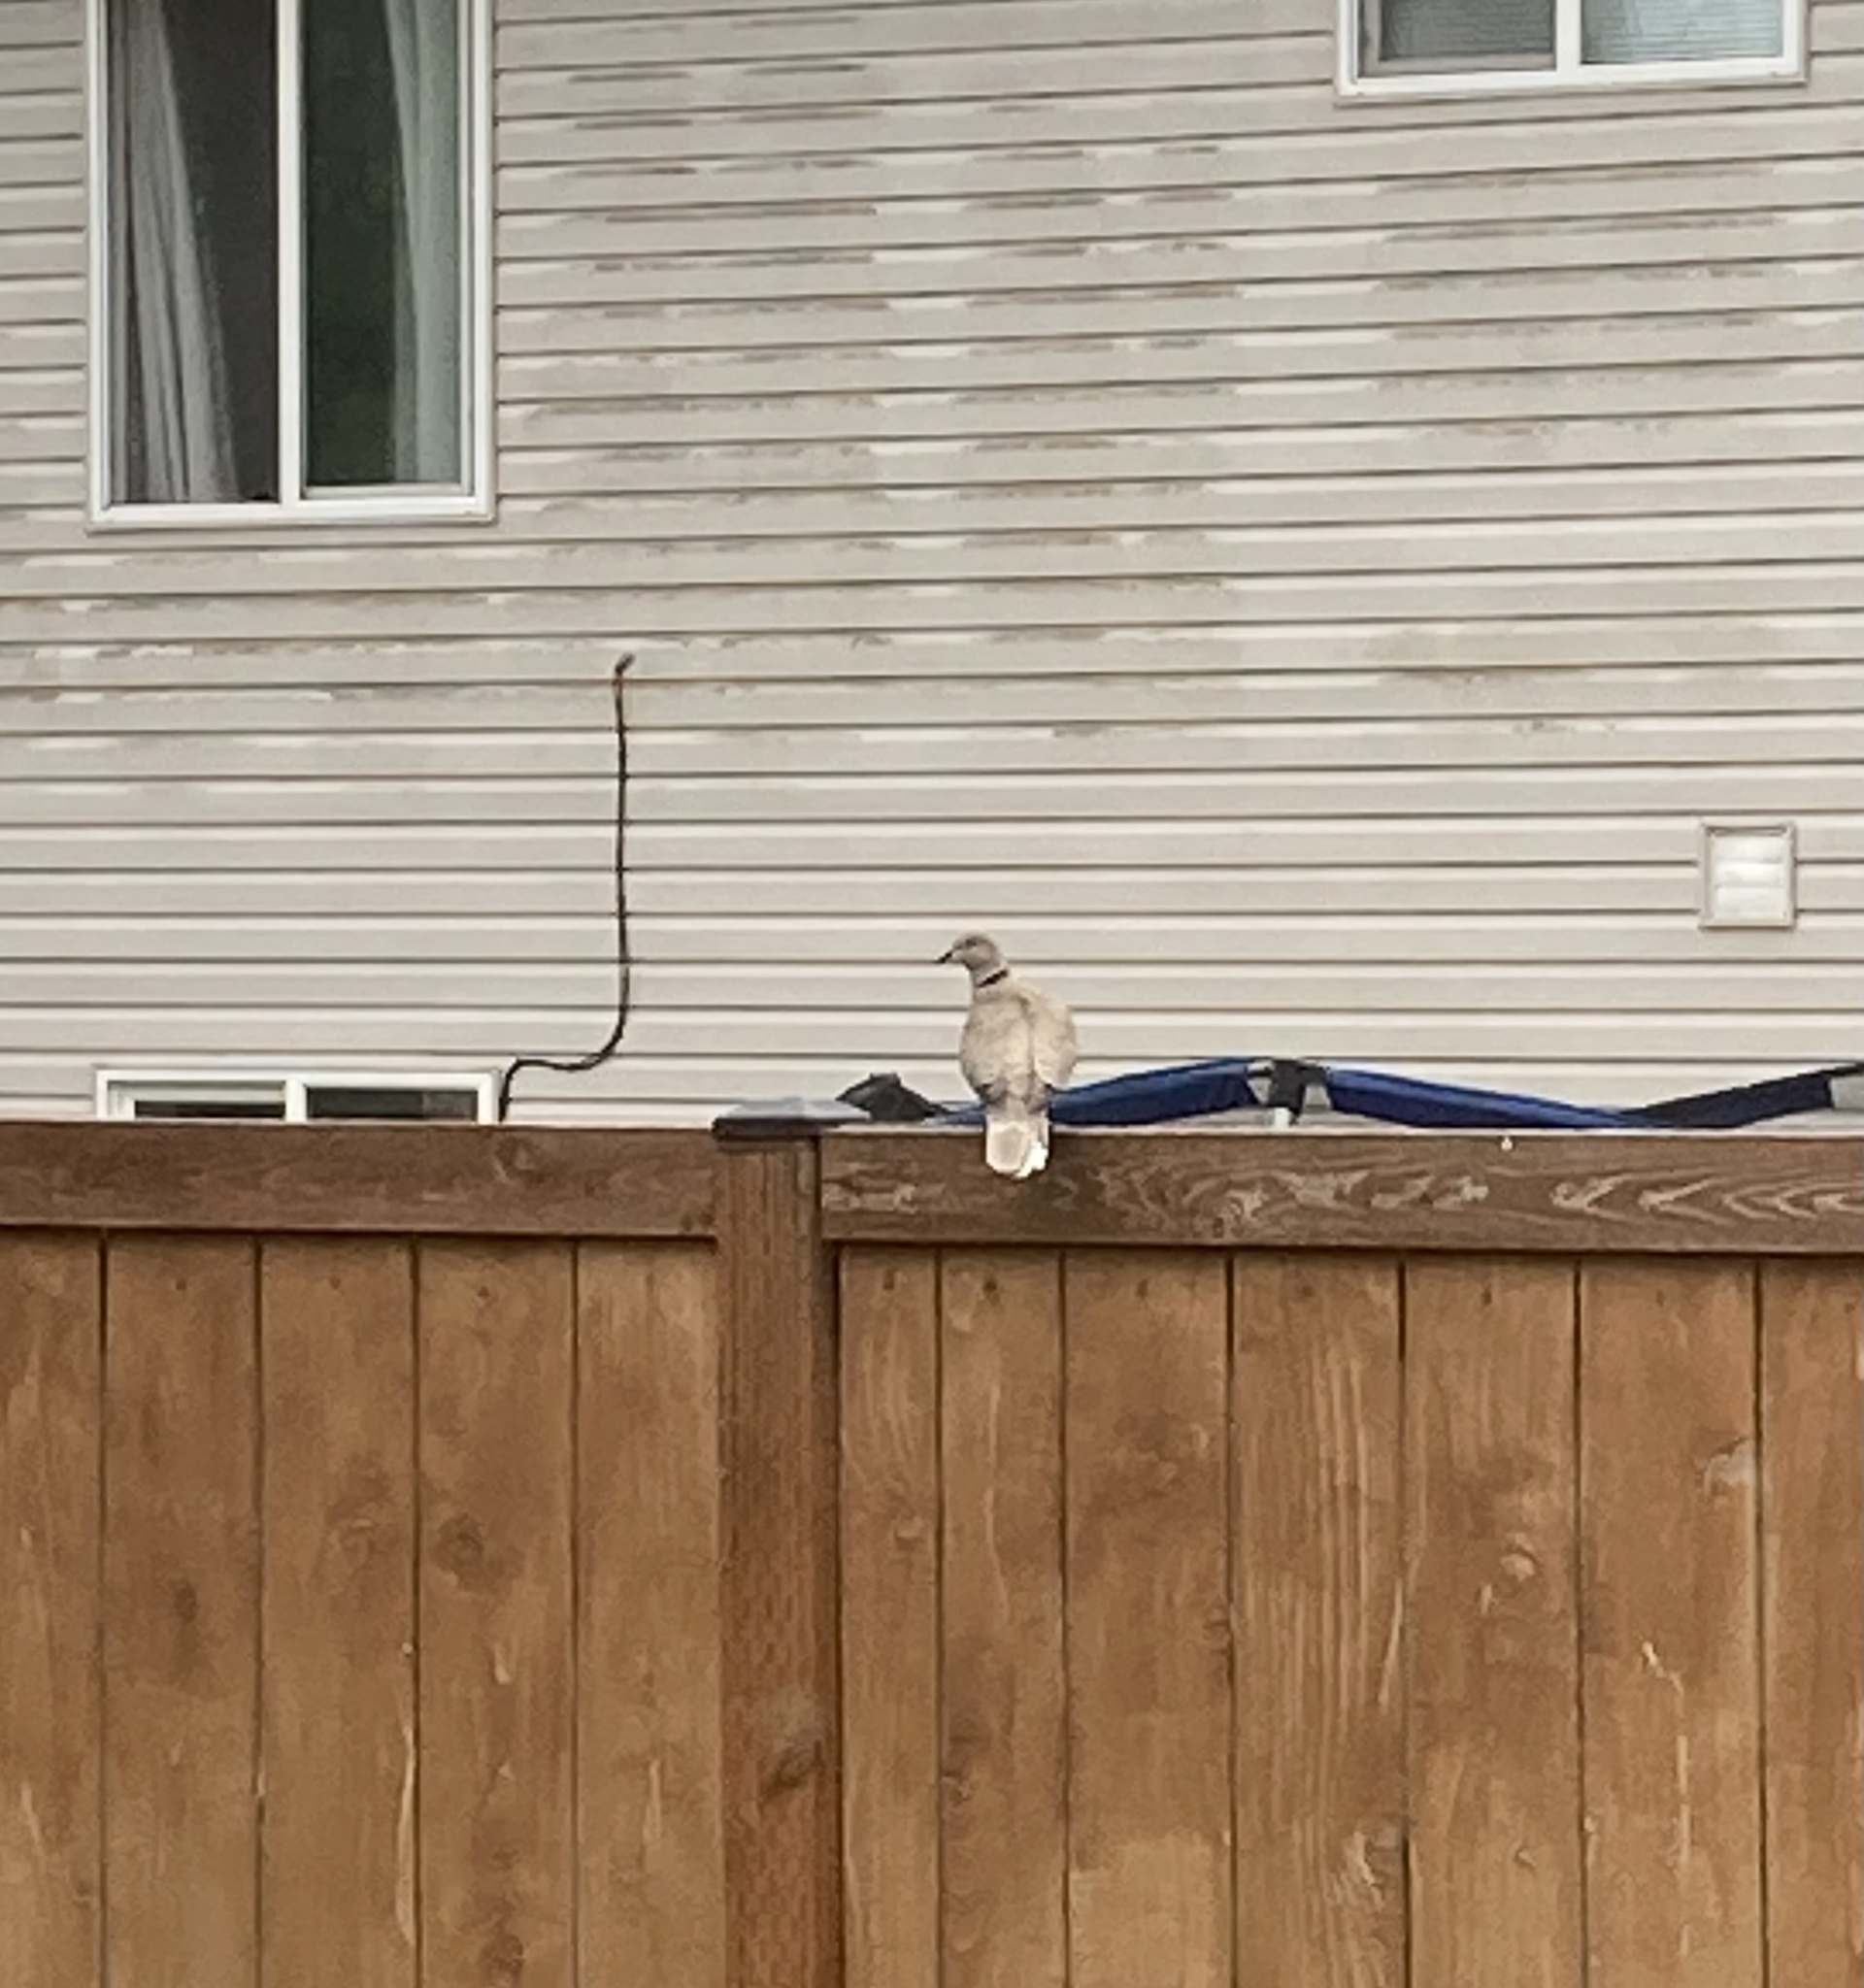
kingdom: Animalia
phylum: Chordata
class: Aves
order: Columbiformes
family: Columbidae
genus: Streptopelia
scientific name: Streptopelia decaocto
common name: Eurasian collared dove
